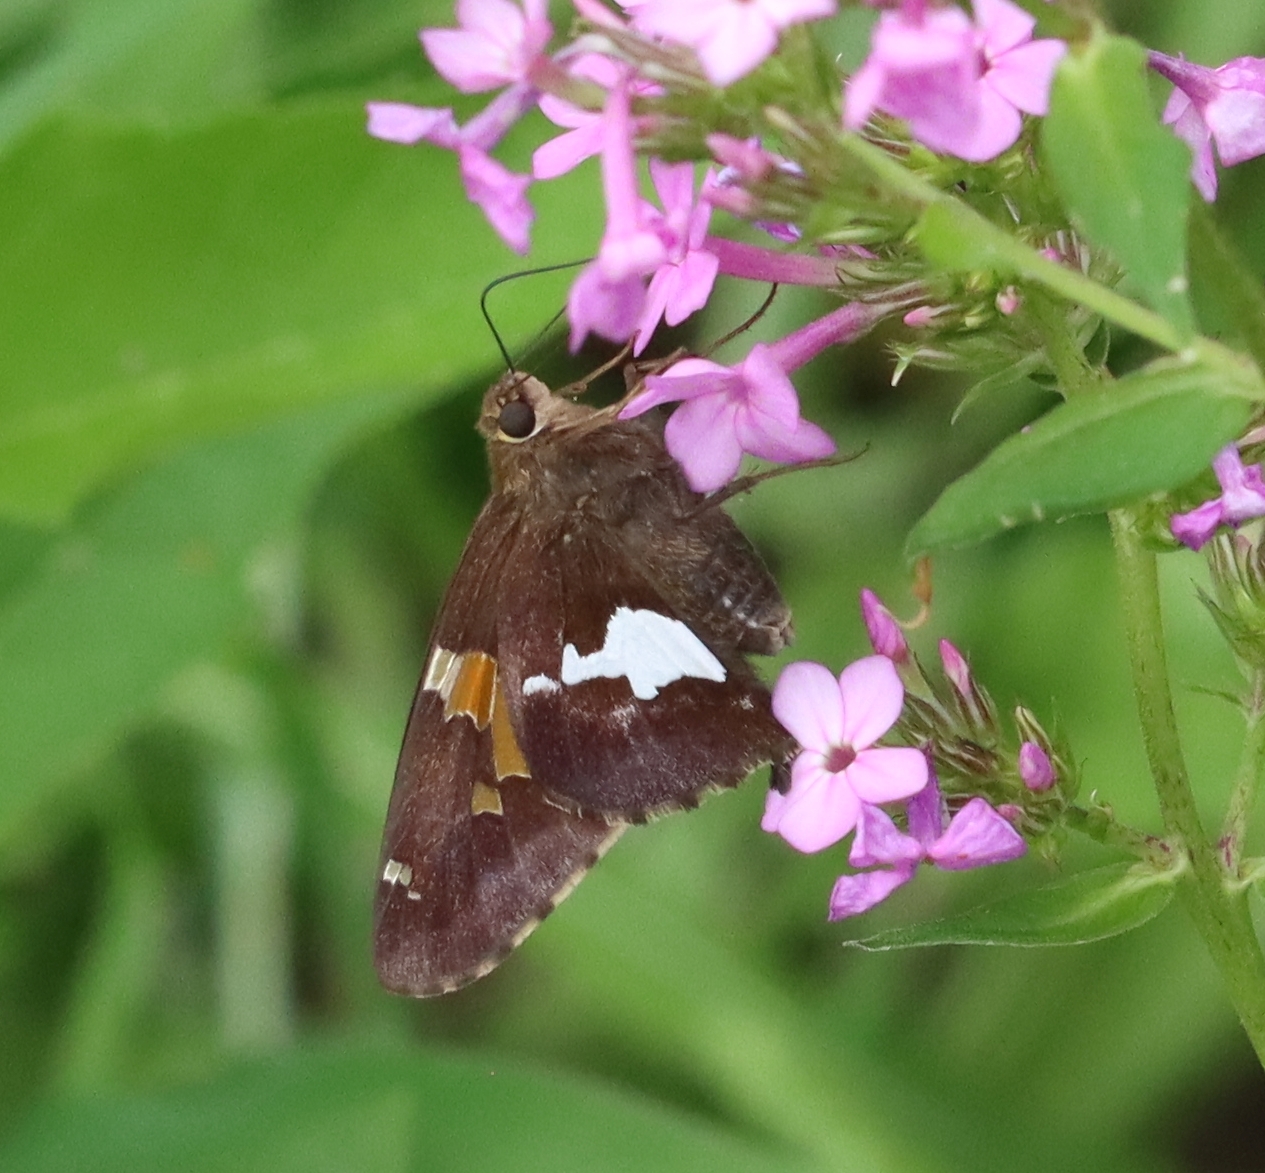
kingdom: Animalia
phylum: Arthropoda
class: Insecta
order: Lepidoptera
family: Hesperiidae
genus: Epargyreus
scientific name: Epargyreus clarus
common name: Silver-spotted skipper
